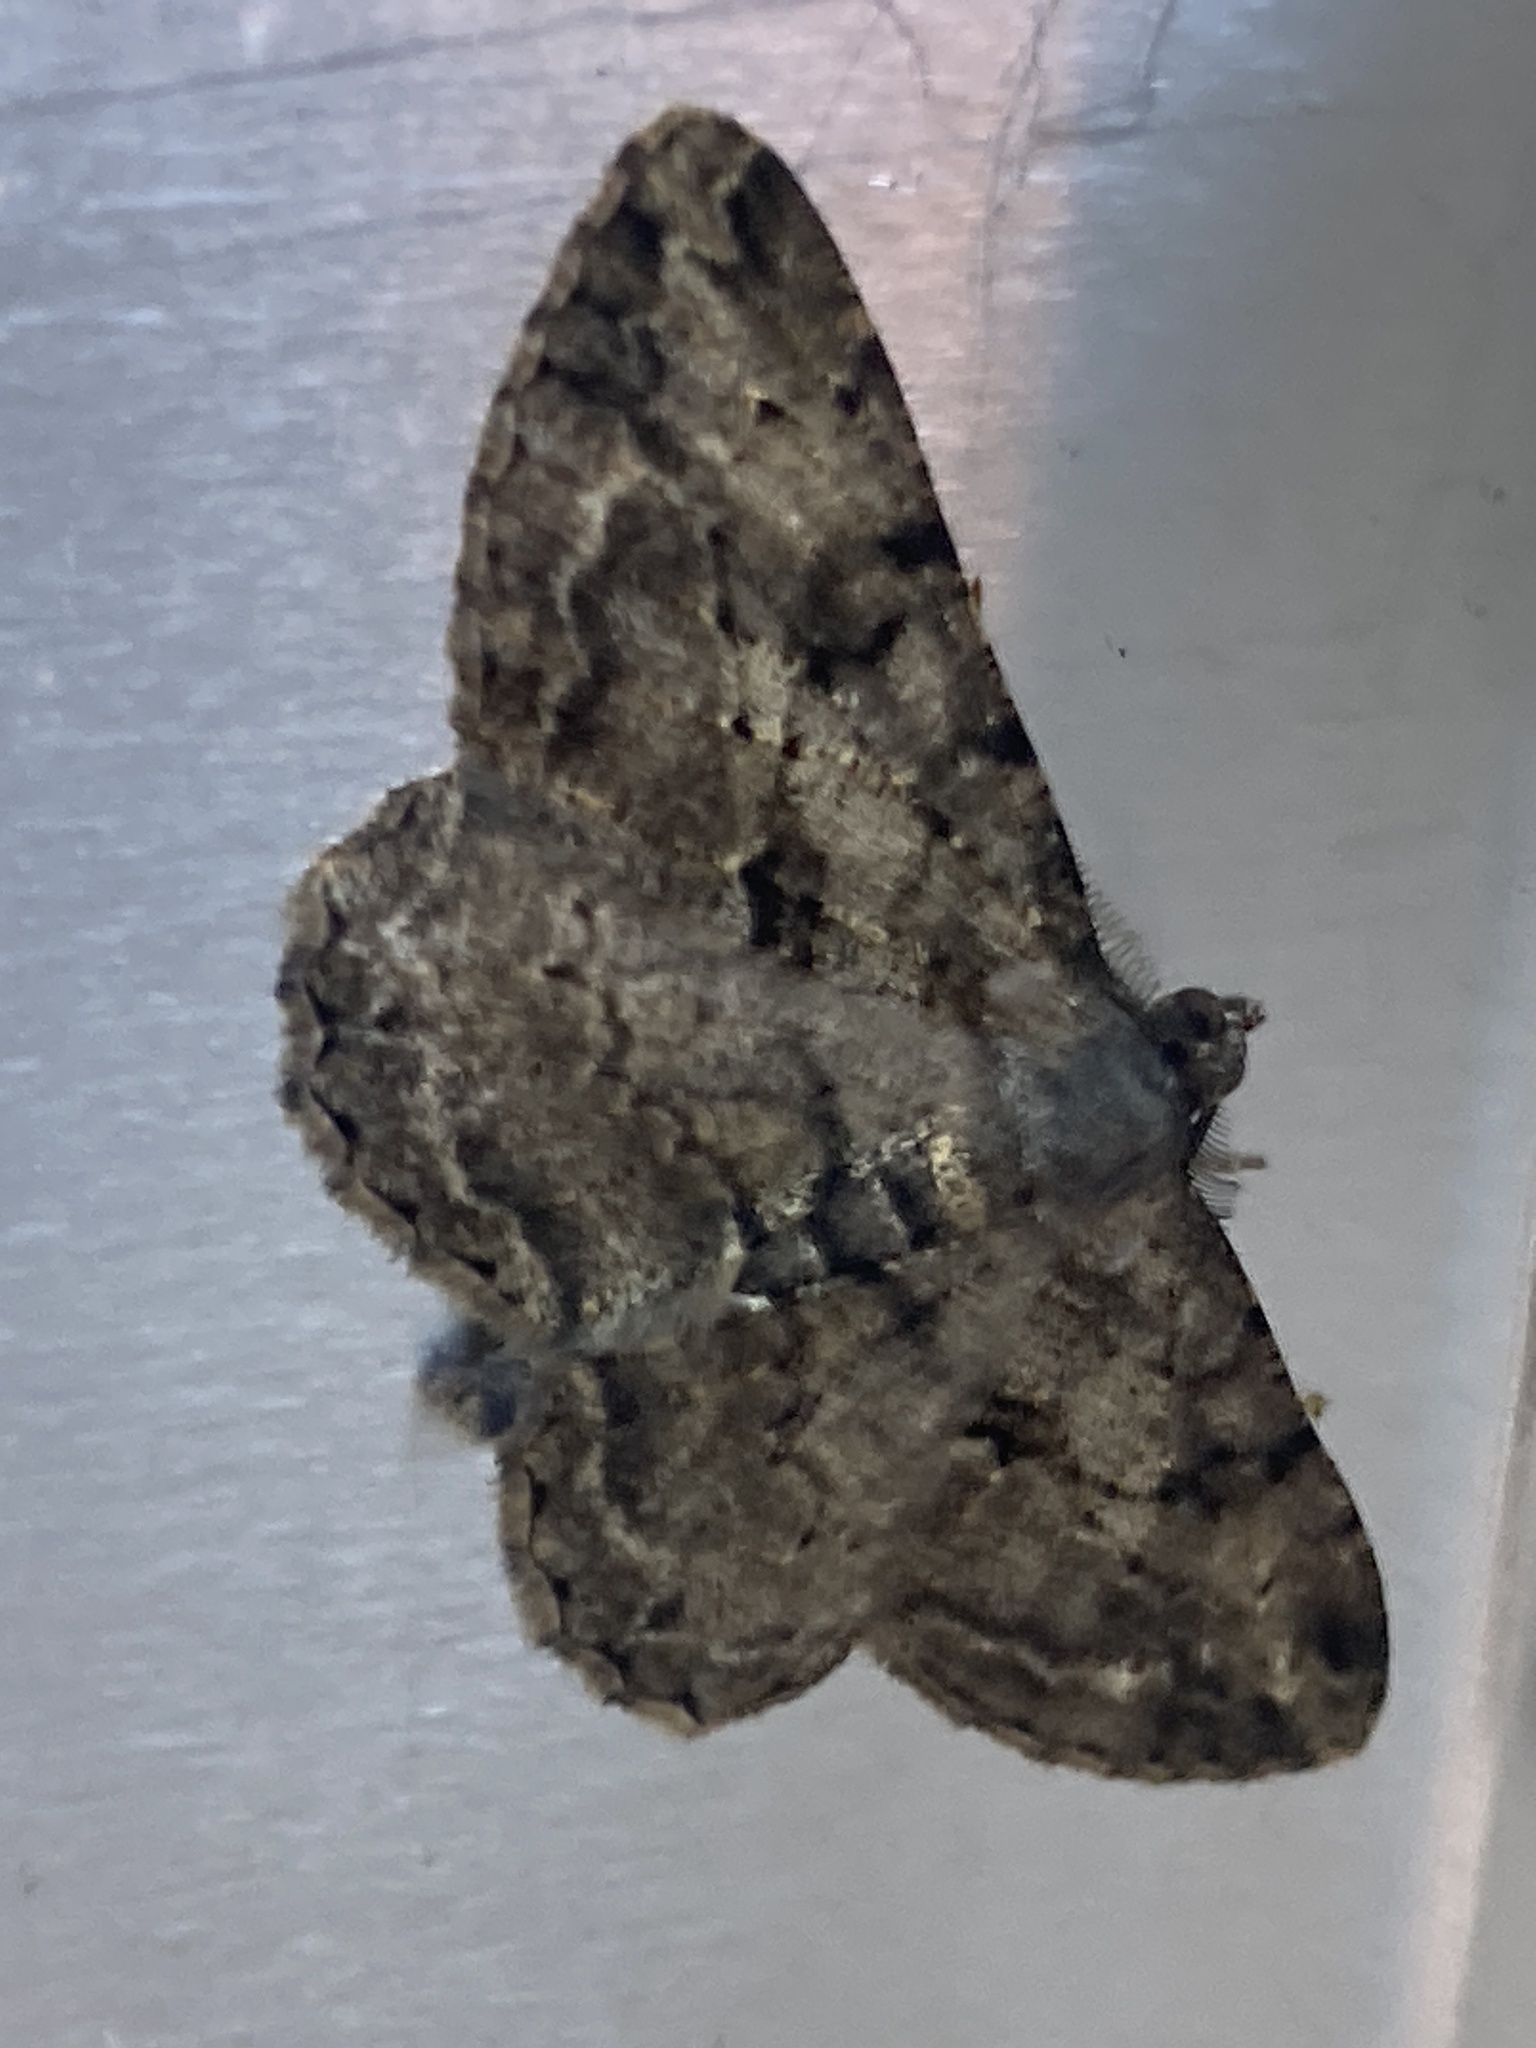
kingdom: Animalia
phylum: Arthropoda
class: Insecta
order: Lepidoptera
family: Geometridae
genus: Peribatodes
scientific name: Peribatodes rhomboidaria
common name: Willow beauty
